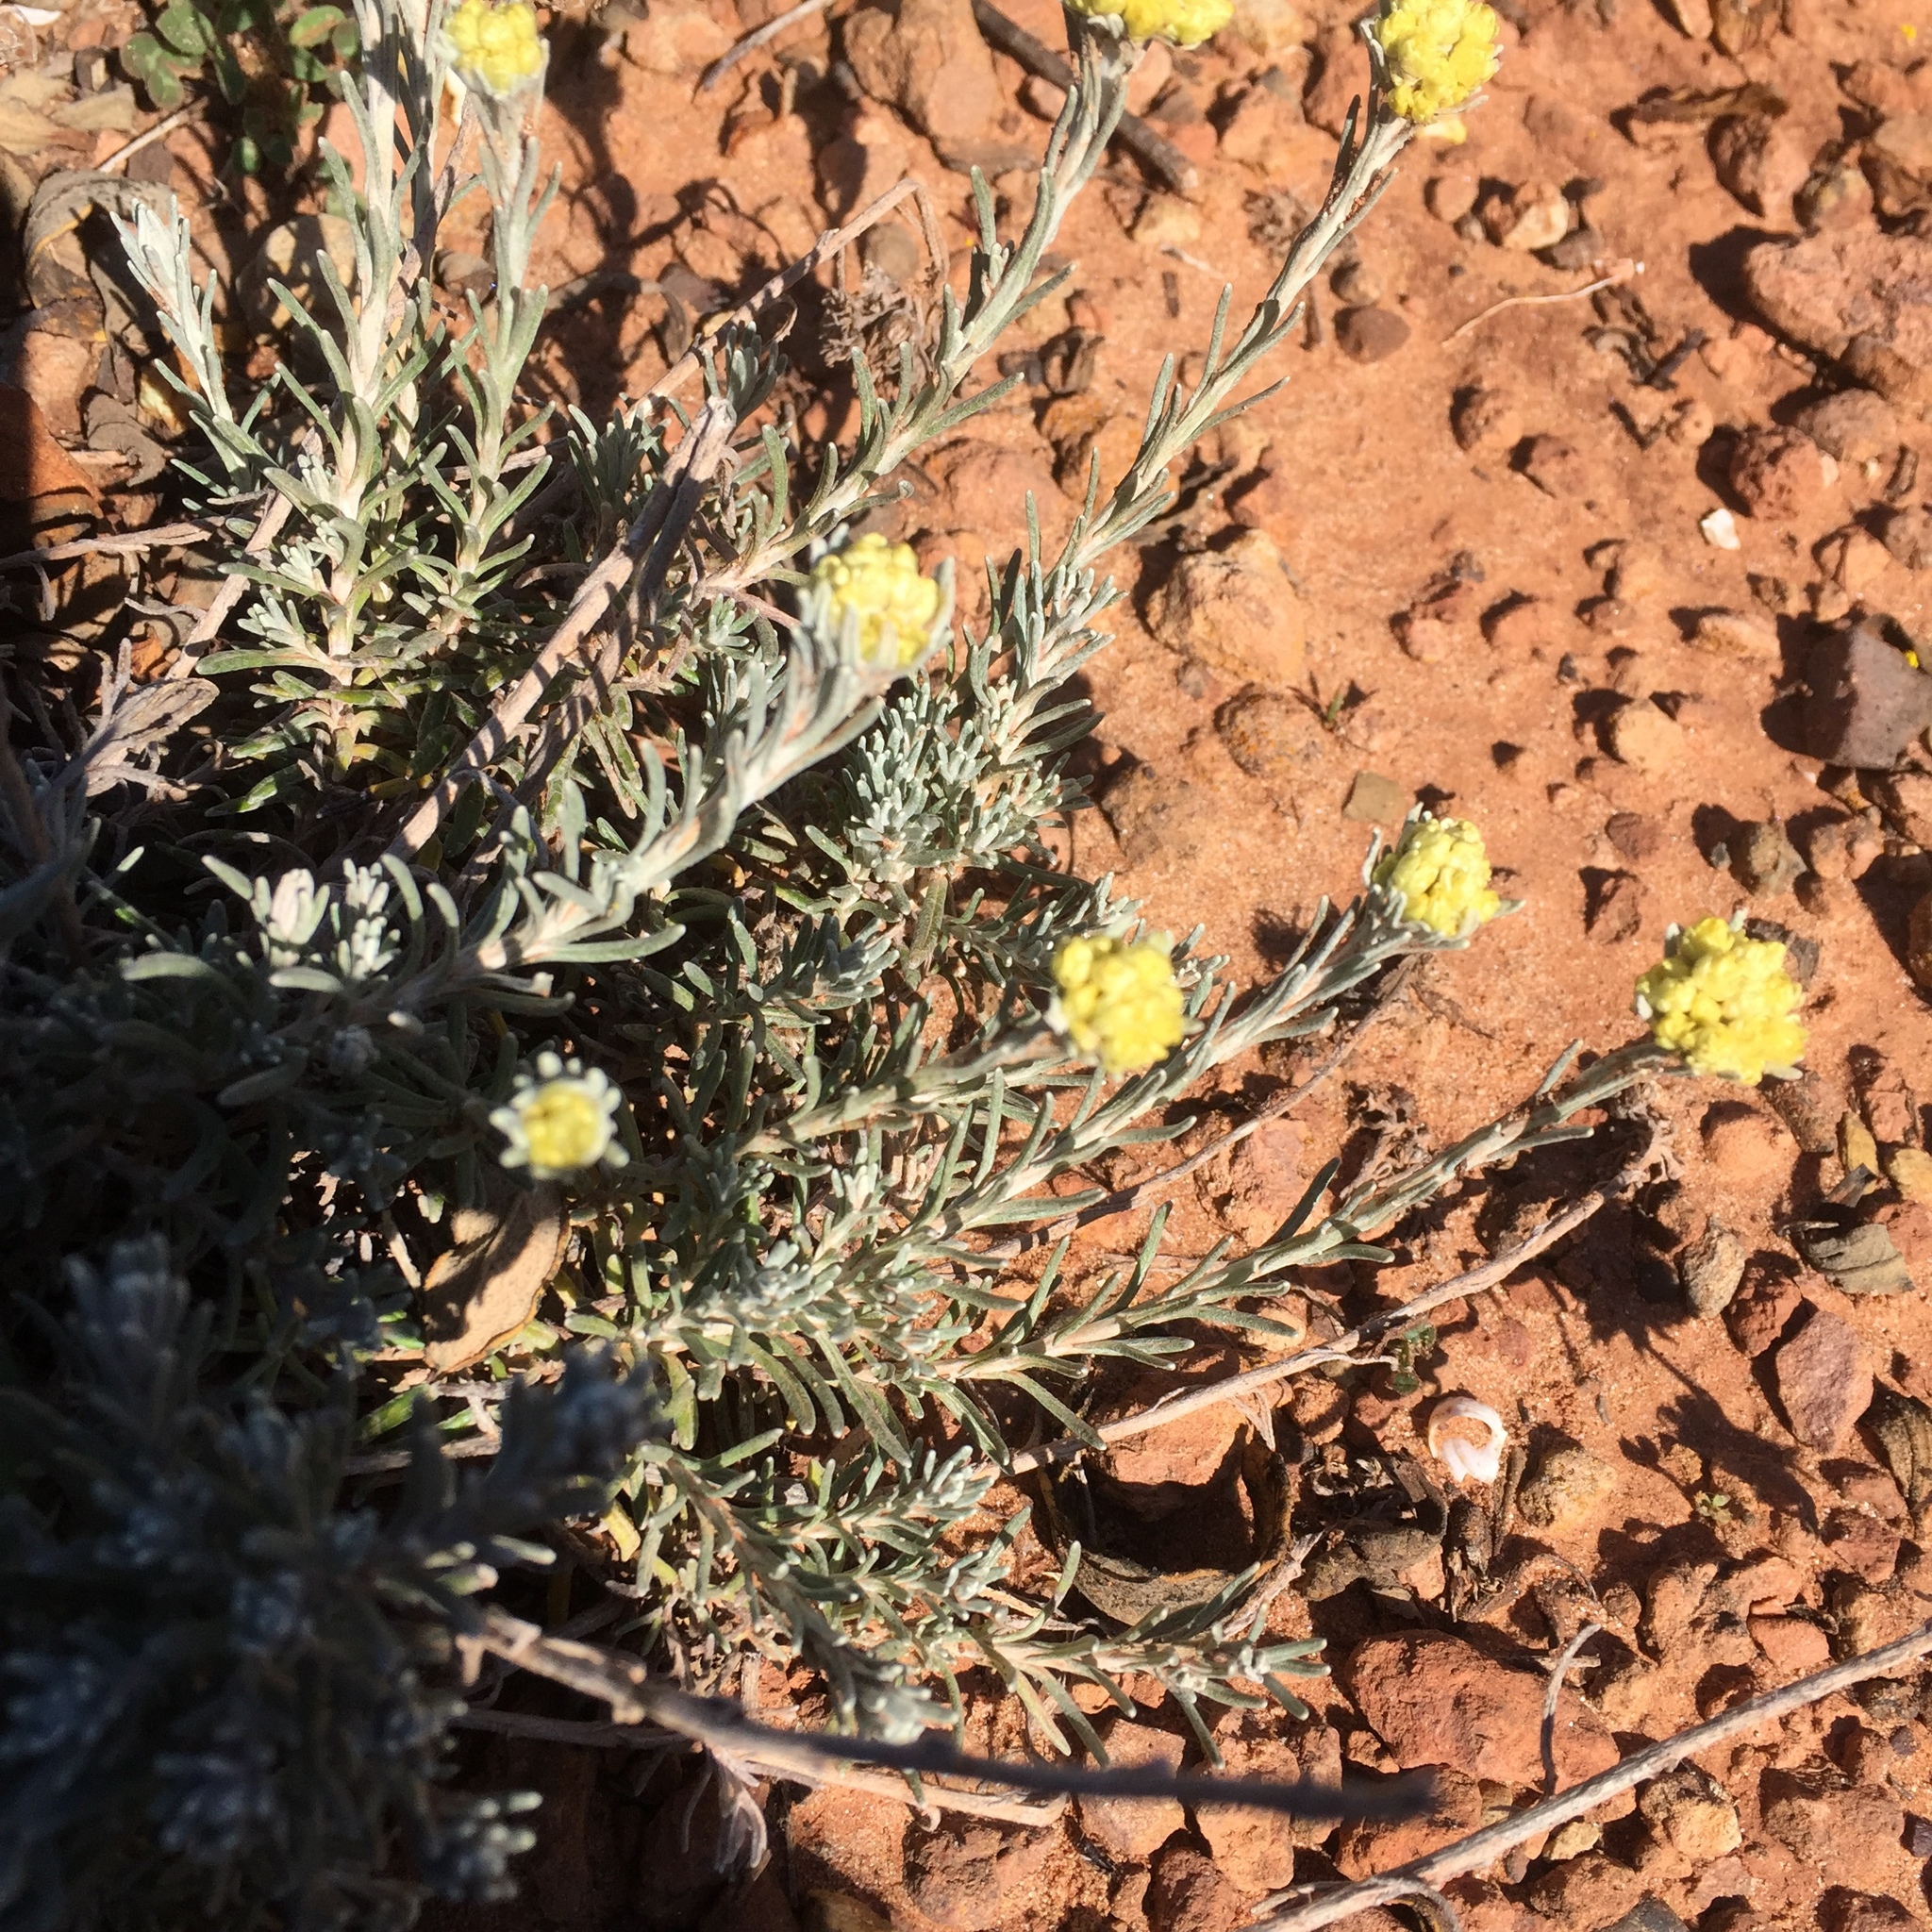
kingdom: Plantae
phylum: Tracheophyta
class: Magnoliopsida
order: Asterales
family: Asteraceae
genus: Helichrysum
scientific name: Helichrysum stoechas
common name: Goldilocks
